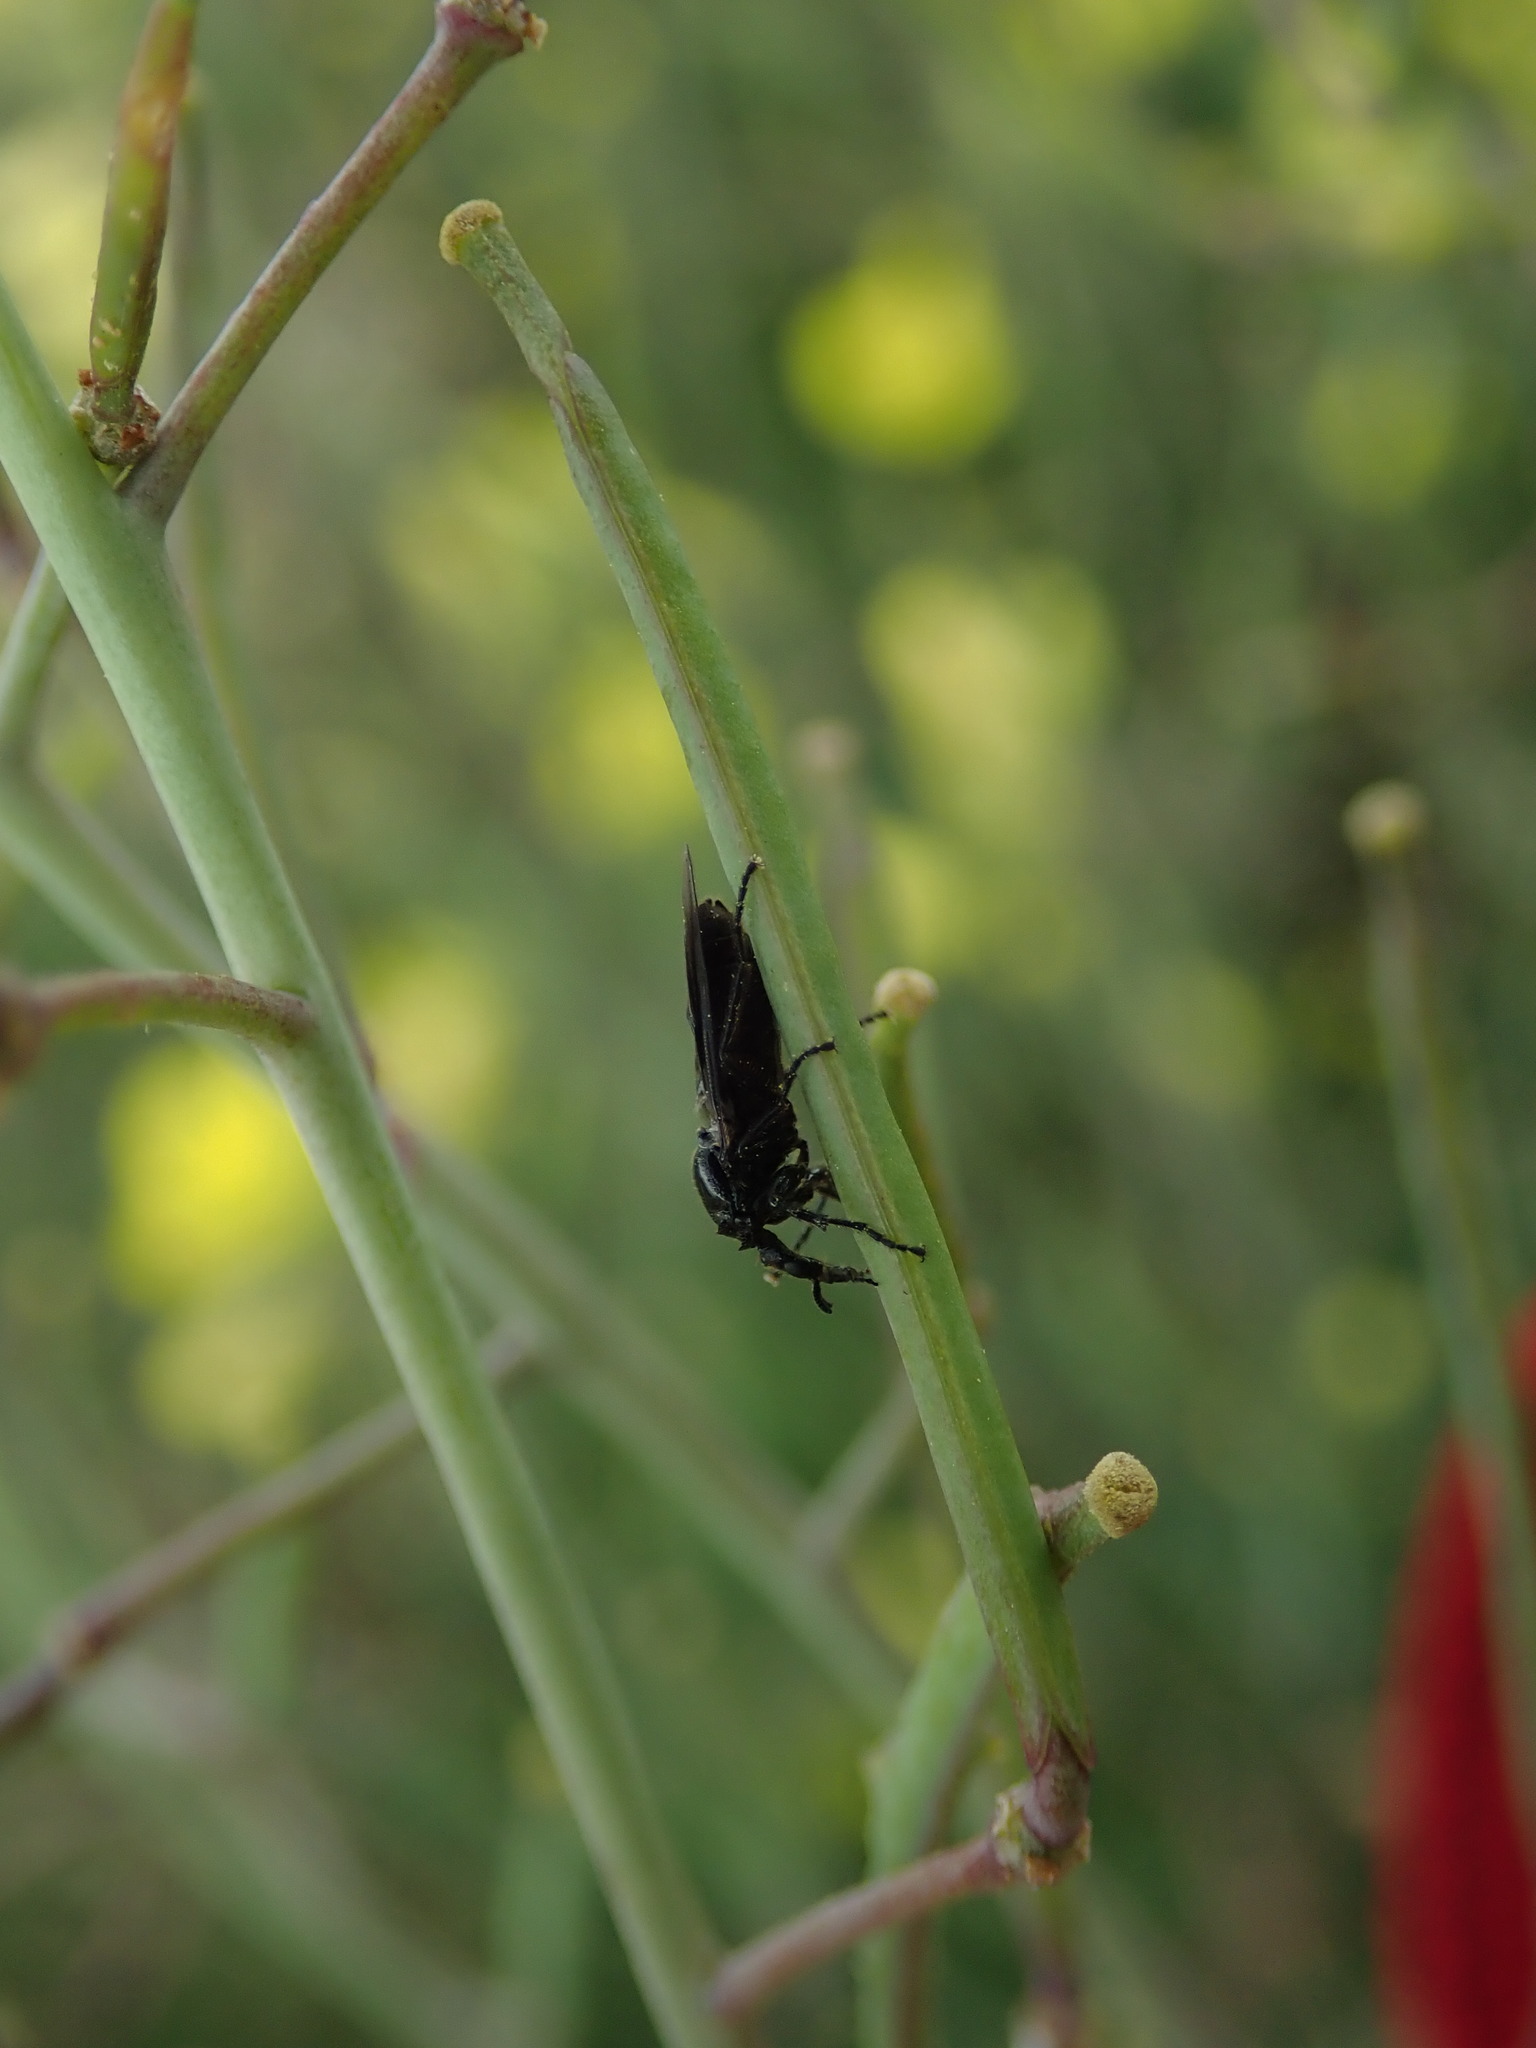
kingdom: Animalia
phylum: Arthropoda
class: Insecta
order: Diptera
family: Bibionidae
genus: Dilophus
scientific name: Dilophus febrilis
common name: Fever fly
